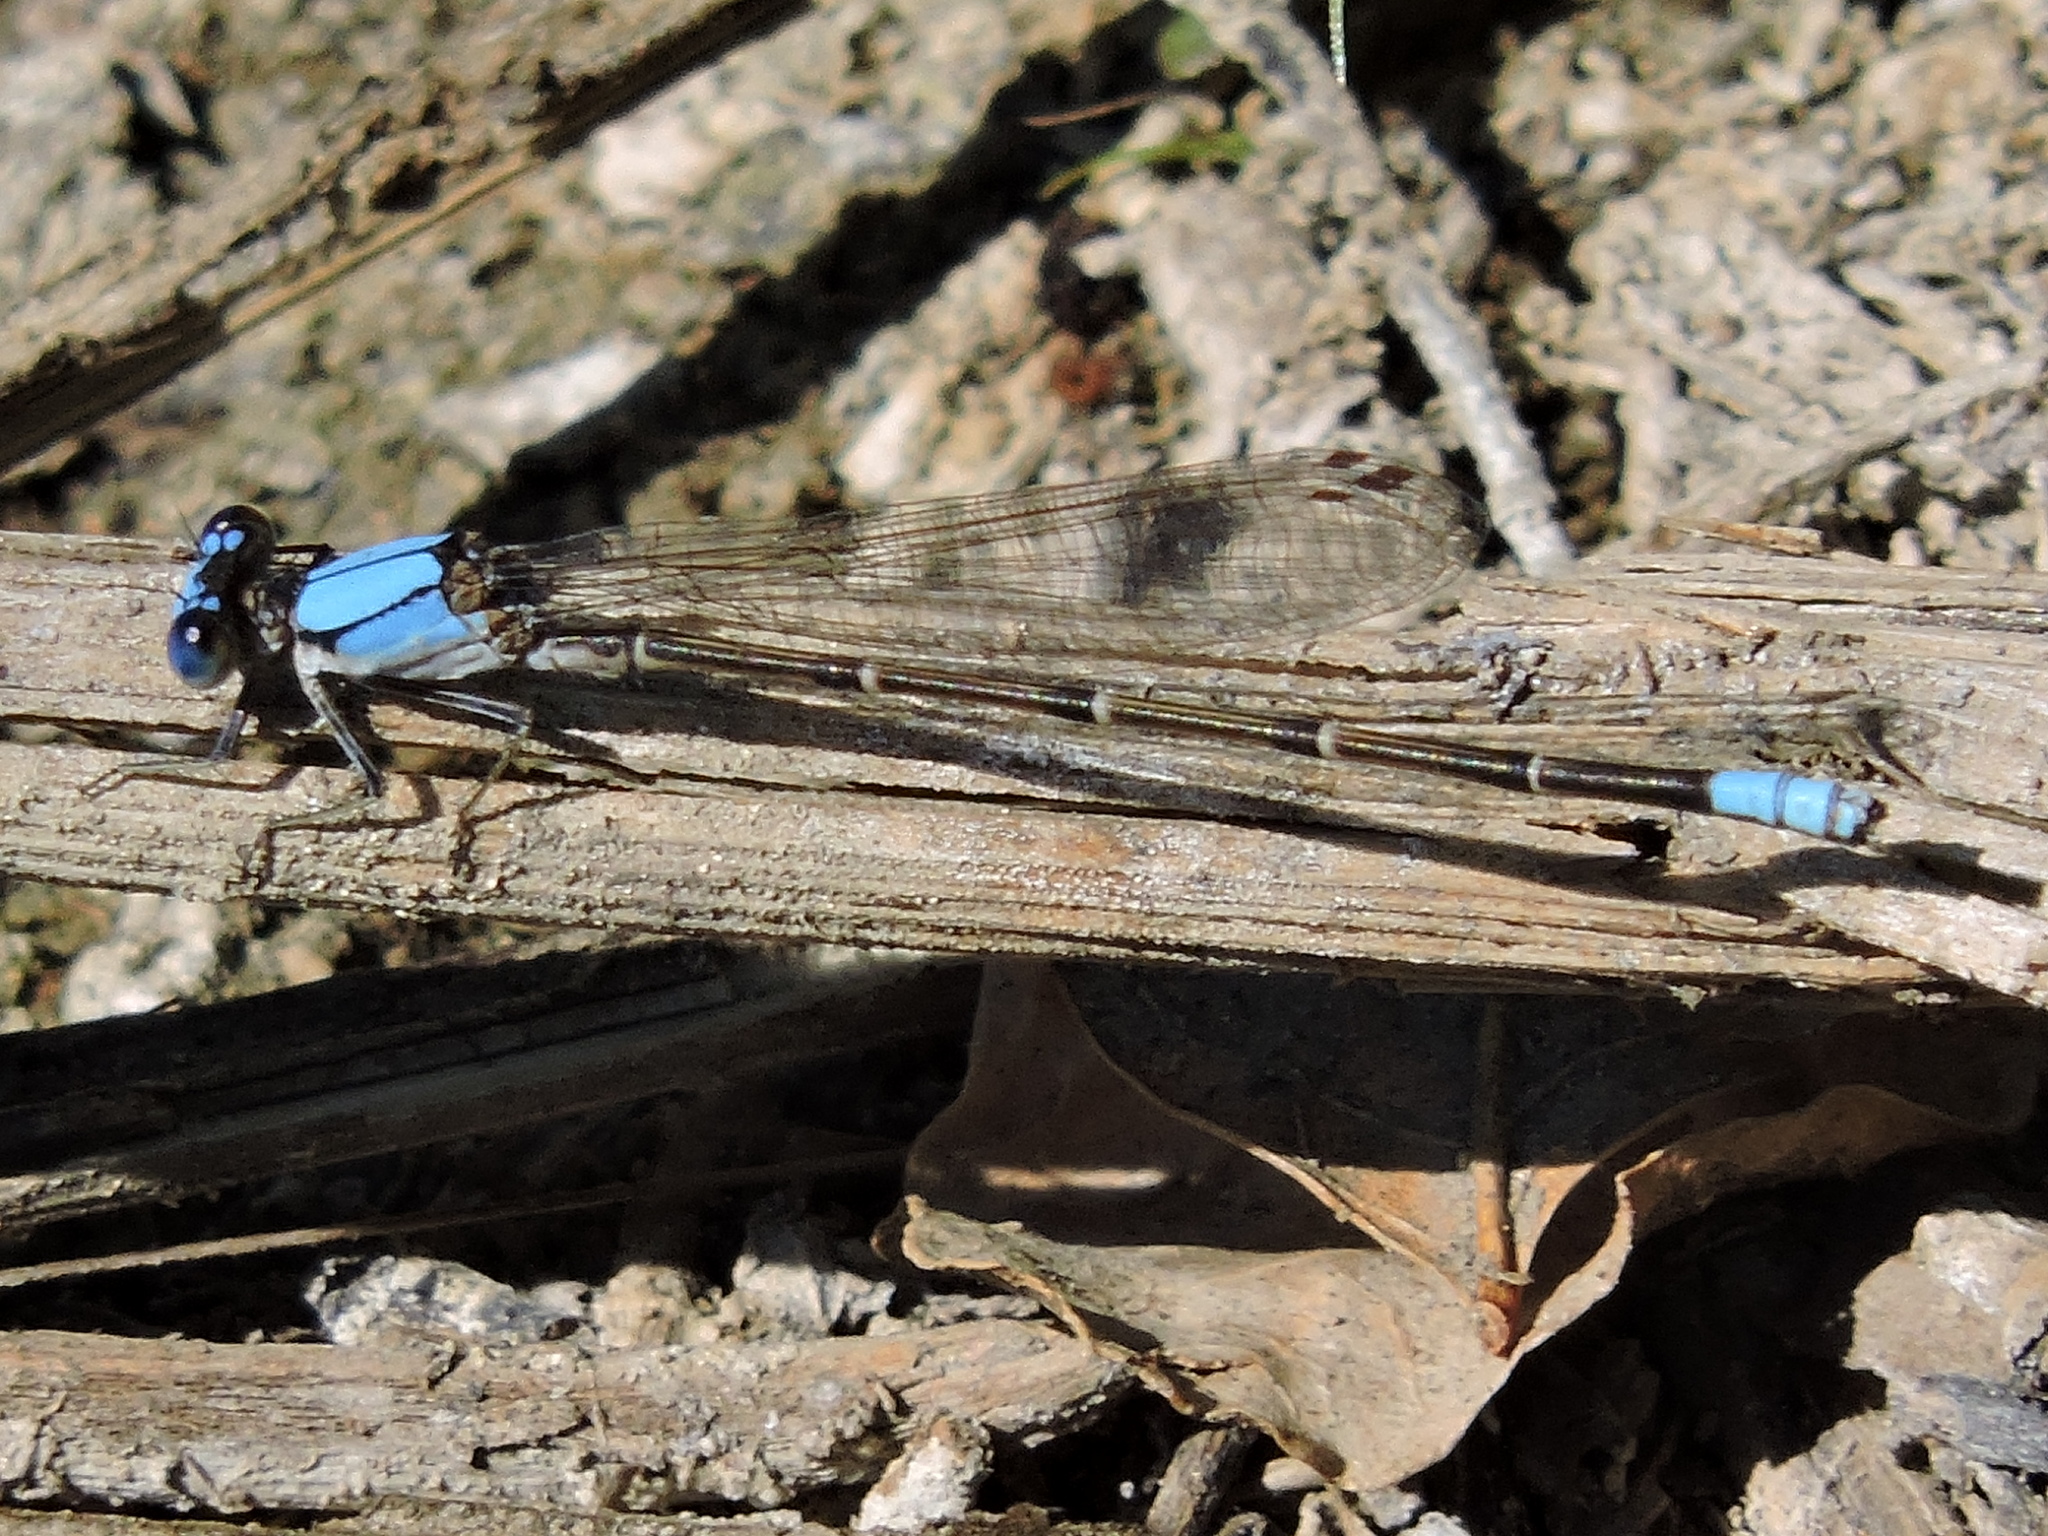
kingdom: Animalia
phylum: Arthropoda
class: Insecta
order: Odonata
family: Coenagrionidae
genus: Argia
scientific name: Argia apicalis
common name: Blue-fronted dancer
